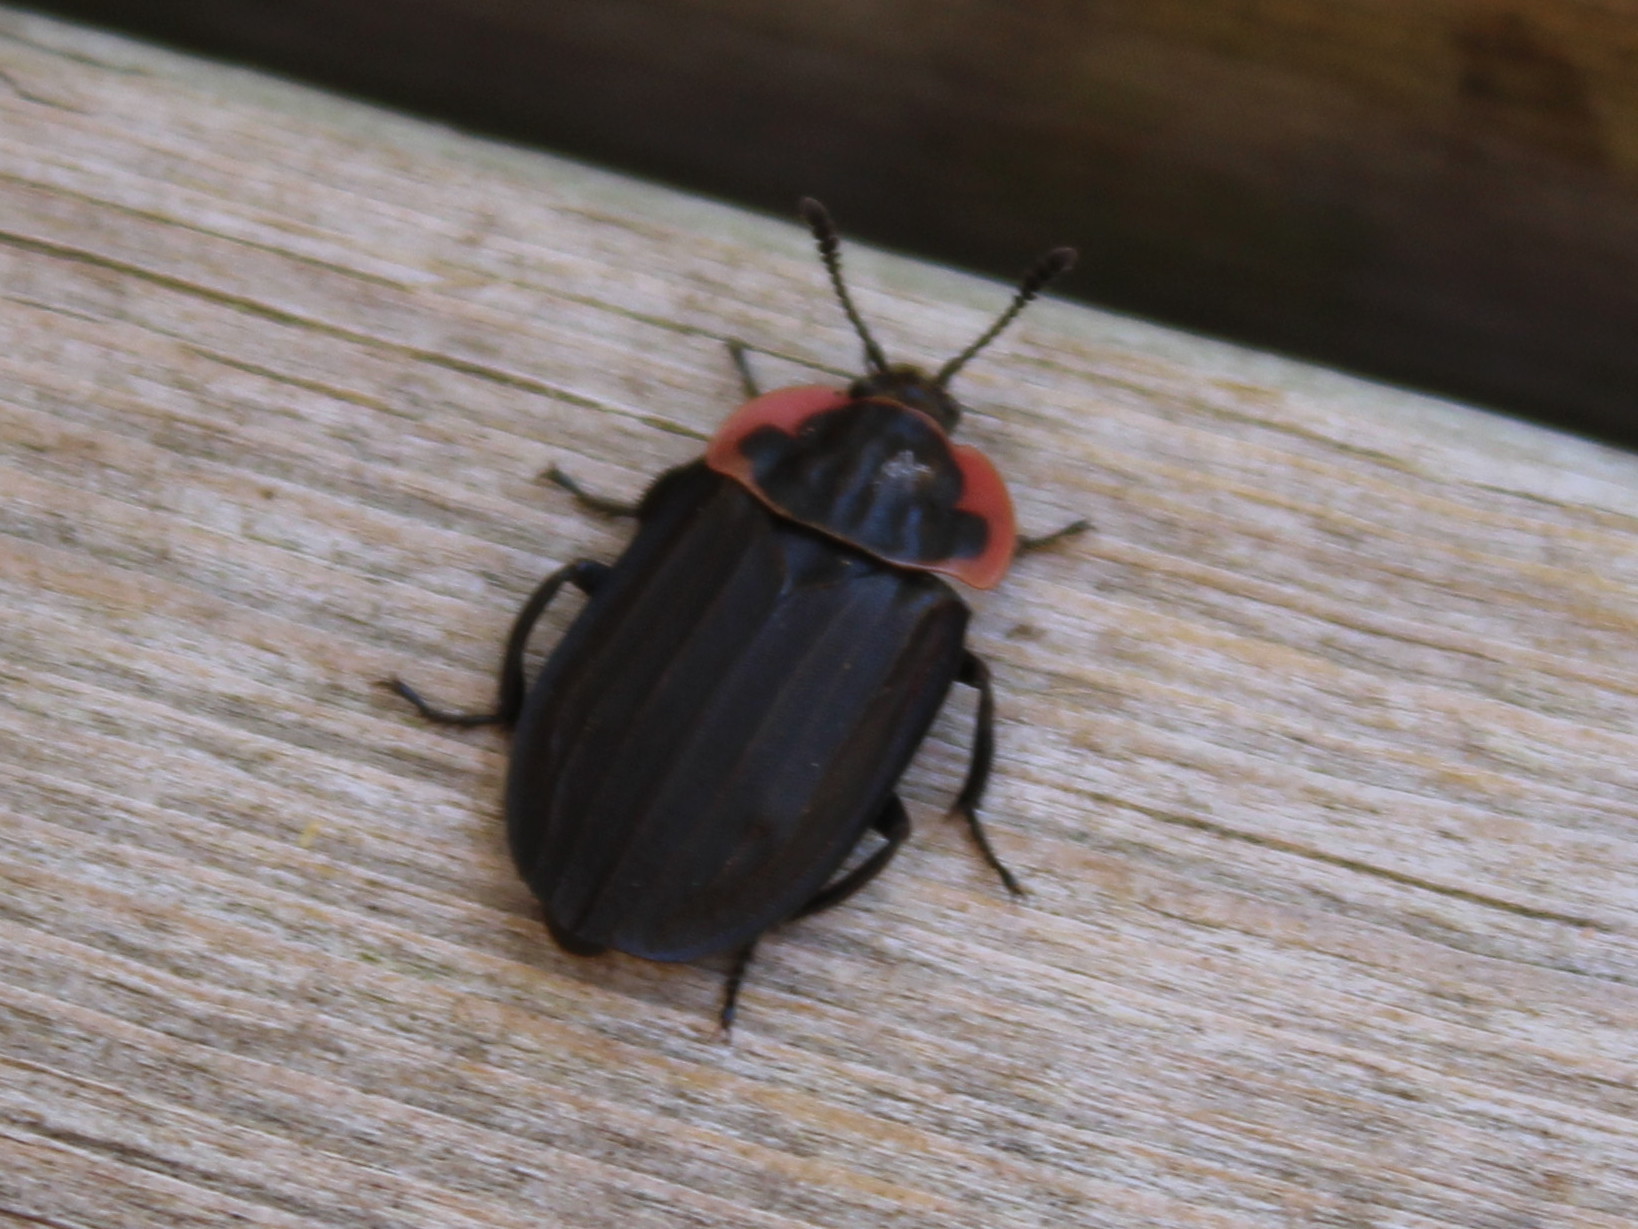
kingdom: Animalia
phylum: Arthropoda
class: Insecta
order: Coleoptera
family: Staphylinidae
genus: Oiceoptoma
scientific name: Oiceoptoma noveboracense
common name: Margined carrion beetle
